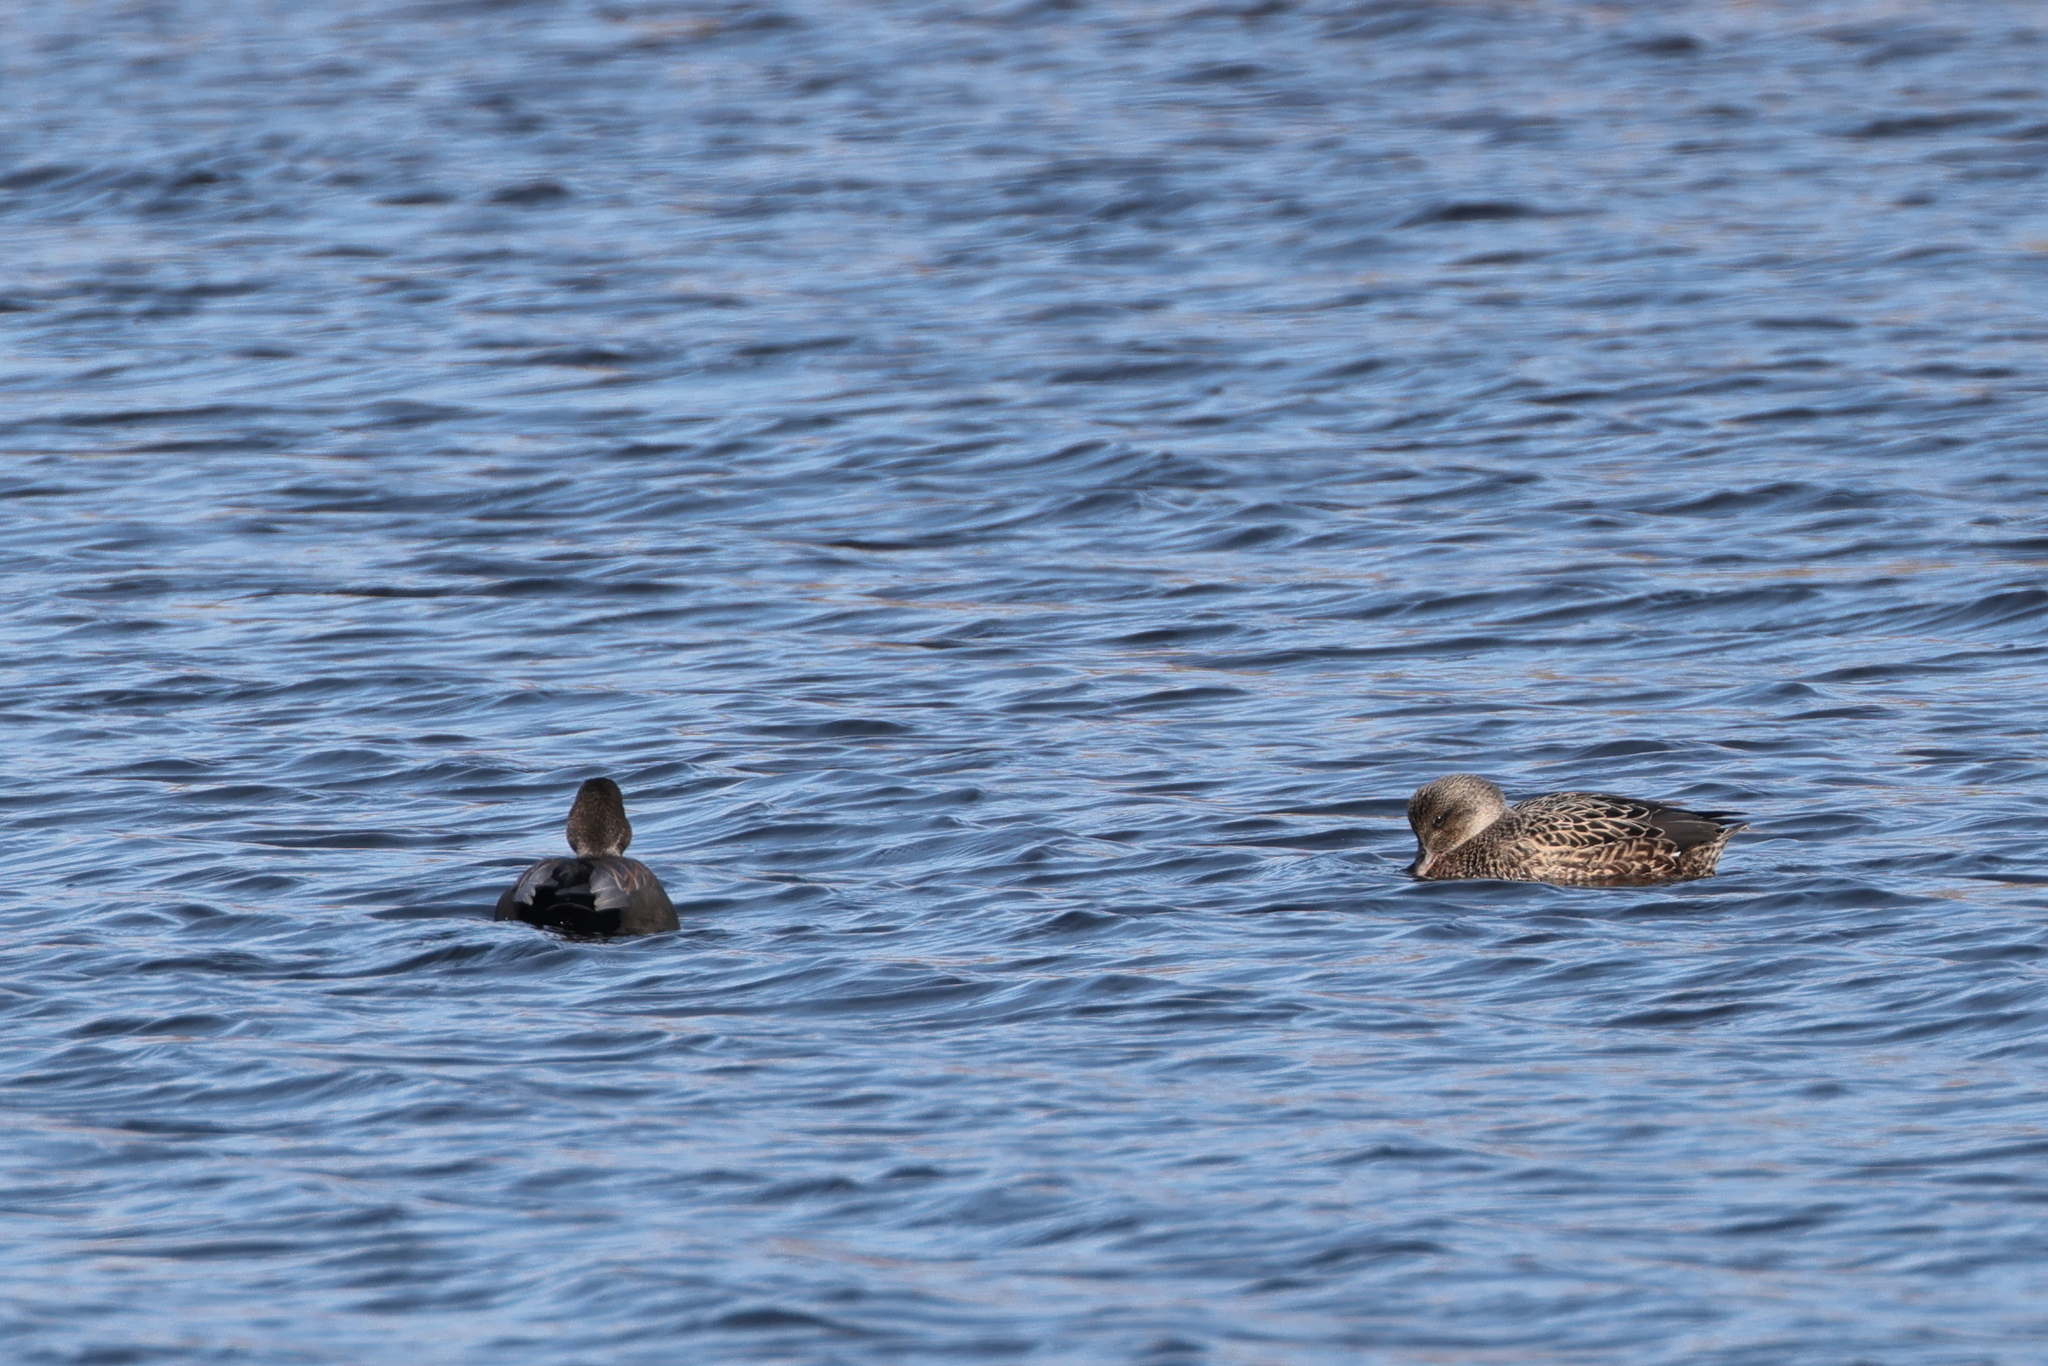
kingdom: Animalia
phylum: Chordata
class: Aves
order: Anseriformes
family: Anatidae
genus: Mareca
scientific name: Mareca strepera
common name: Gadwall
